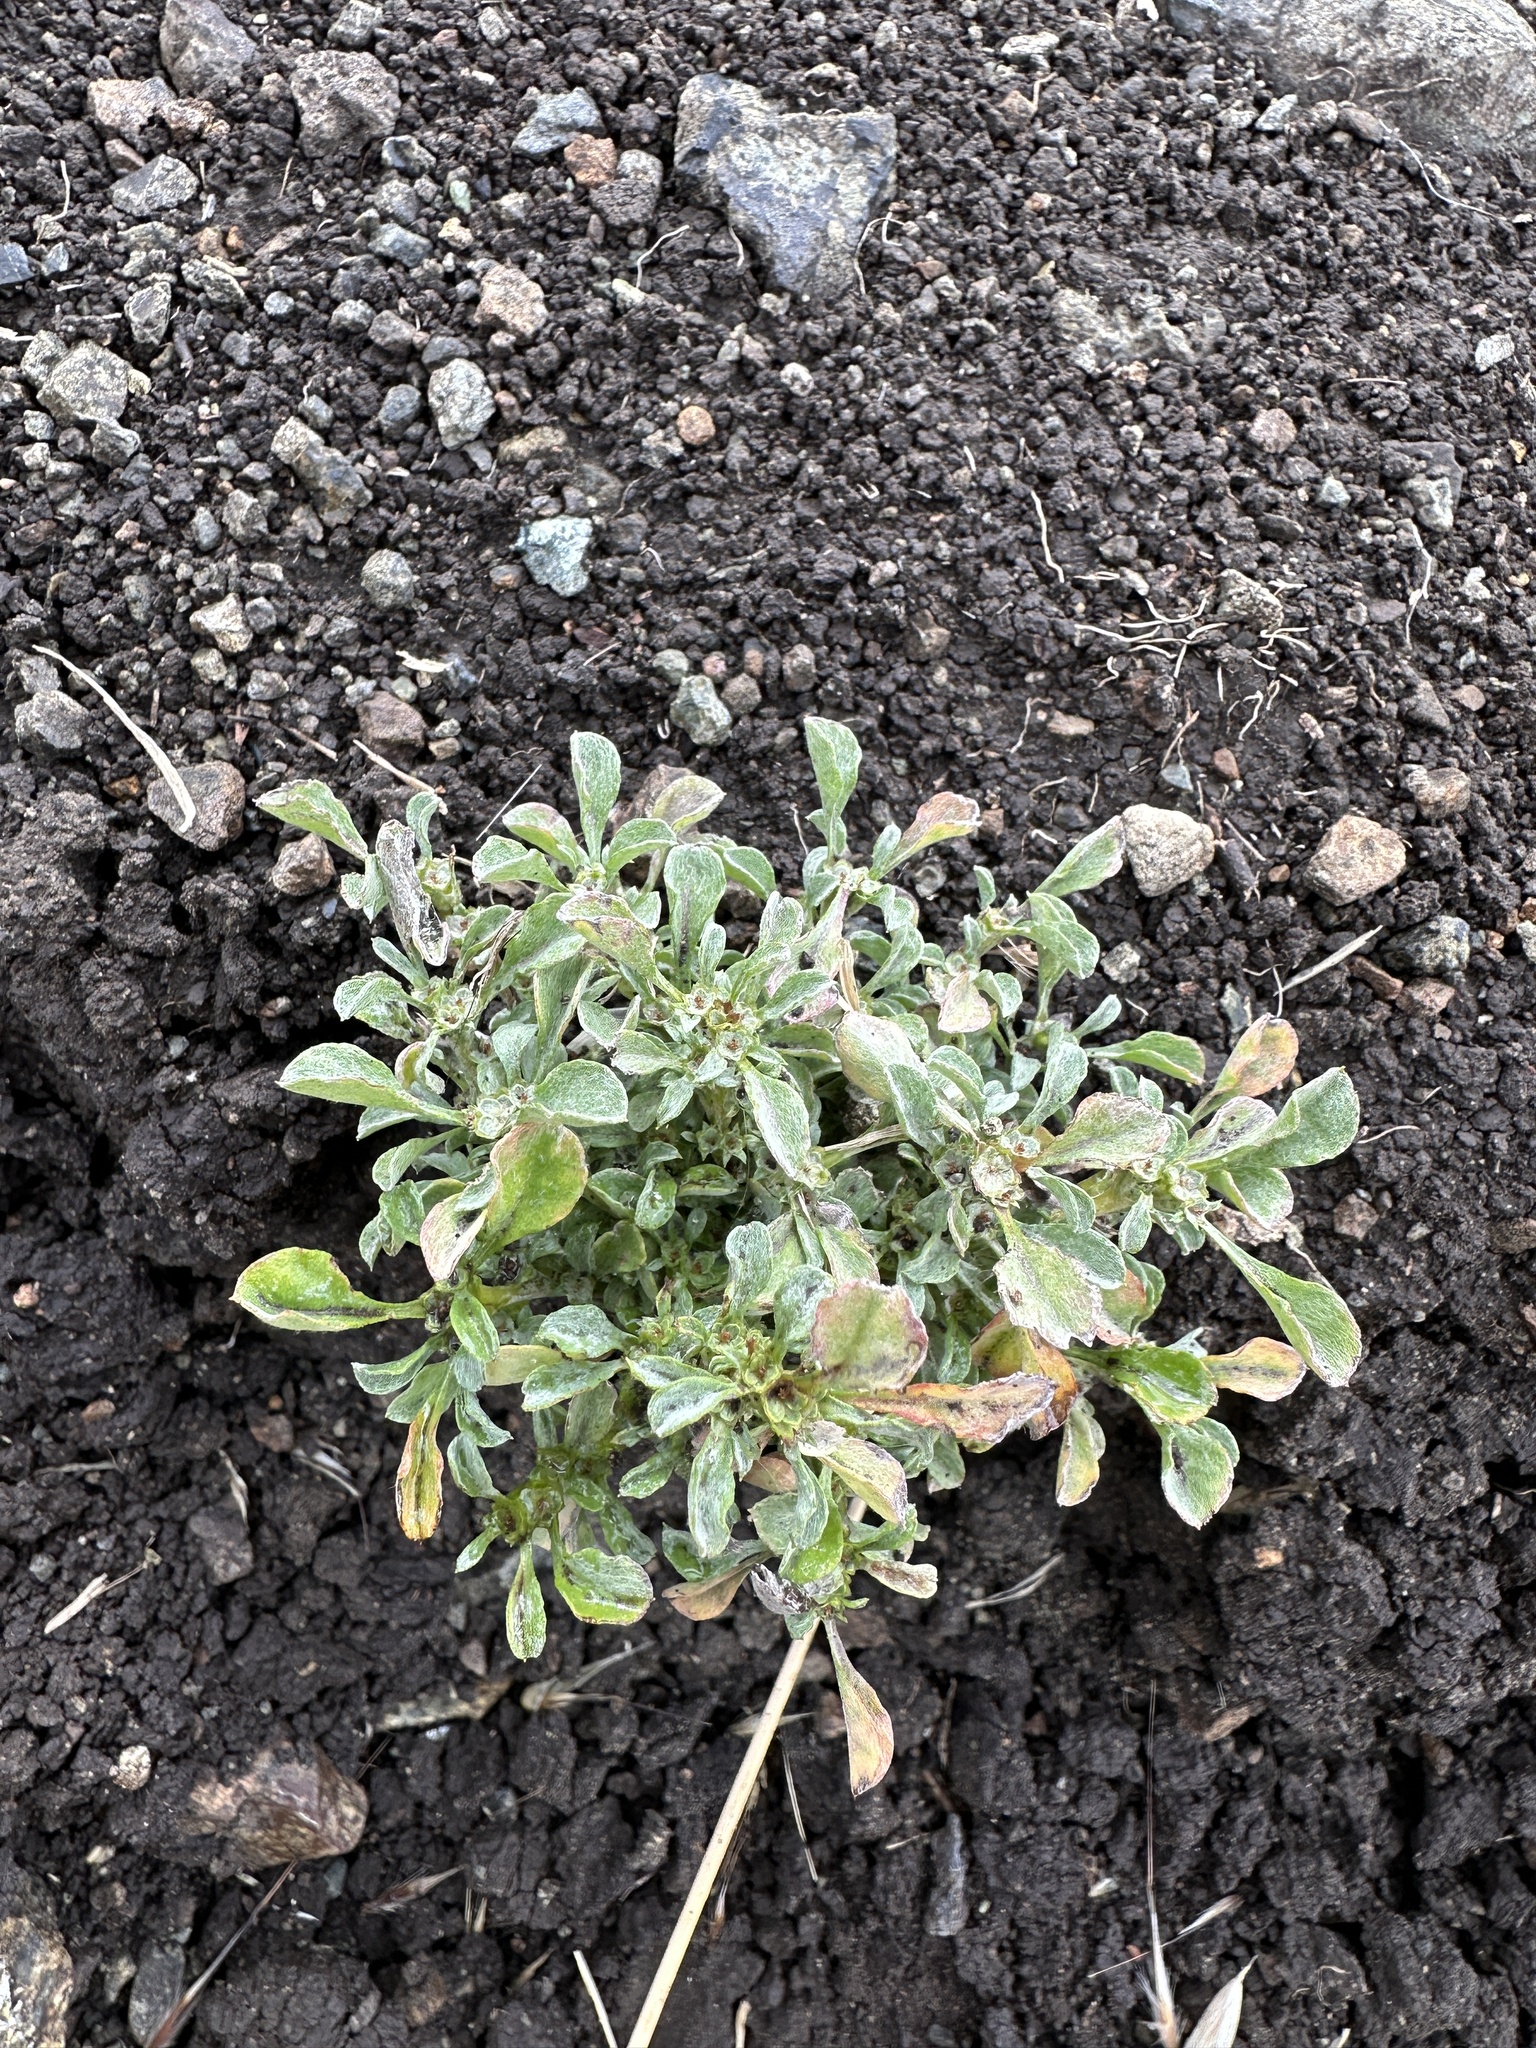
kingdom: Plantae
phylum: Tracheophyta
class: Magnoliopsida
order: Asterales
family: Asteraceae
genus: Hesperevax
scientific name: Hesperevax sparsiflora
